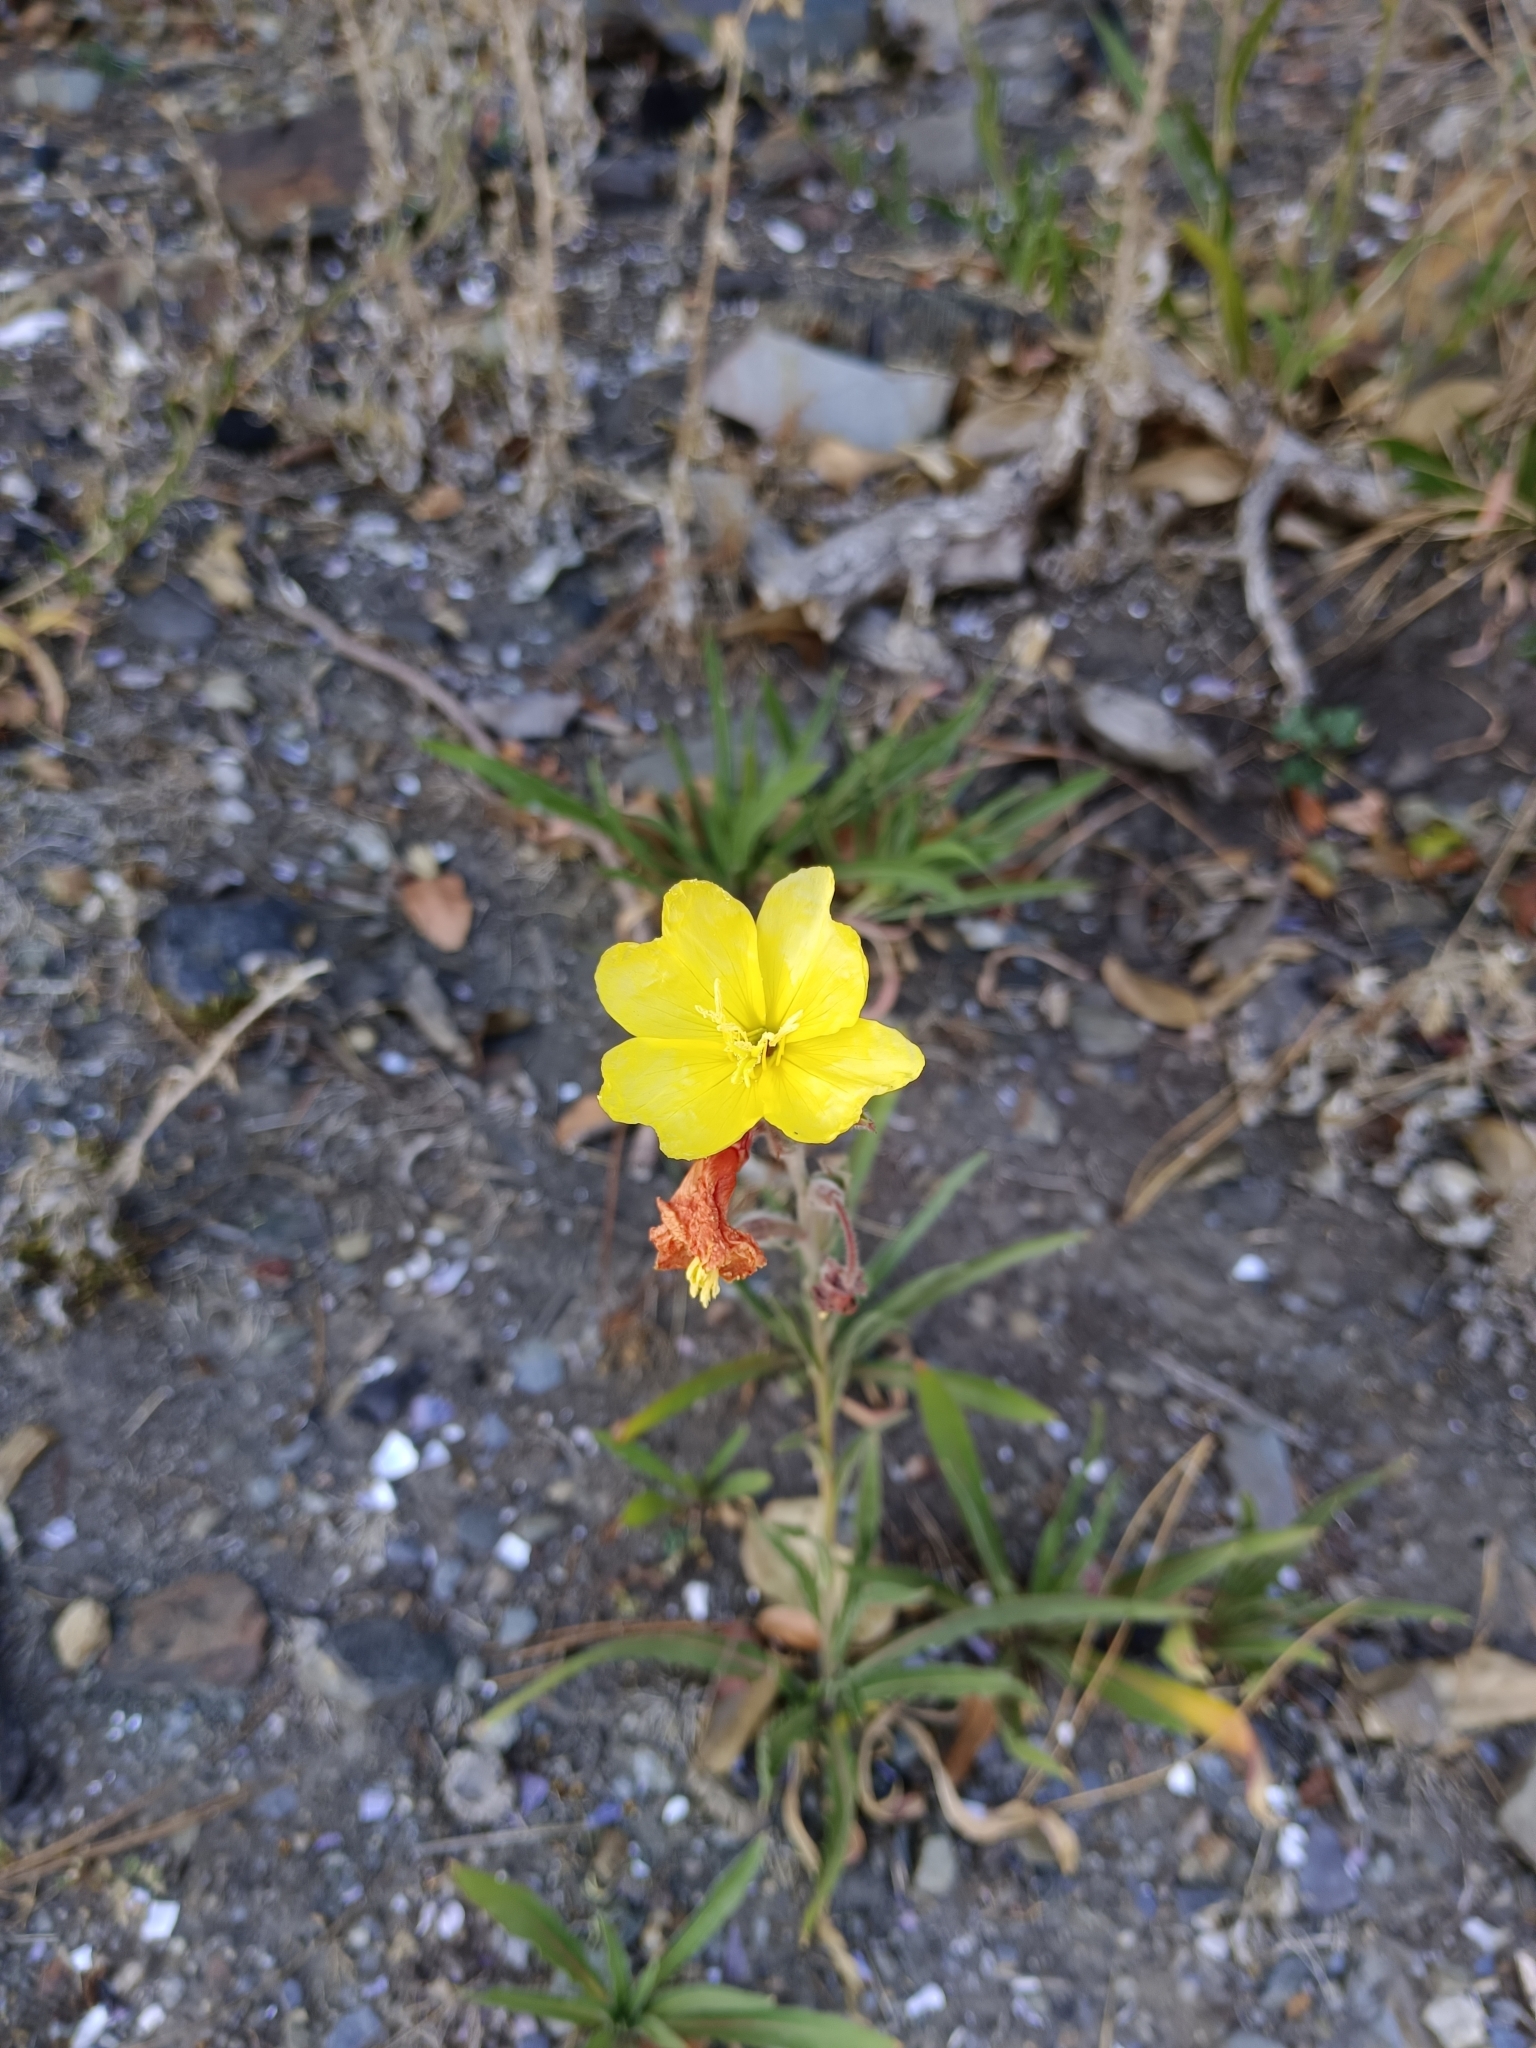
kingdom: Plantae
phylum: Tracheophyta
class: Magnoliopsida
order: Myrtales
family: Onagraceae
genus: Oenothera
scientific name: Oenothera stricta
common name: Fragrant evening-primrose
